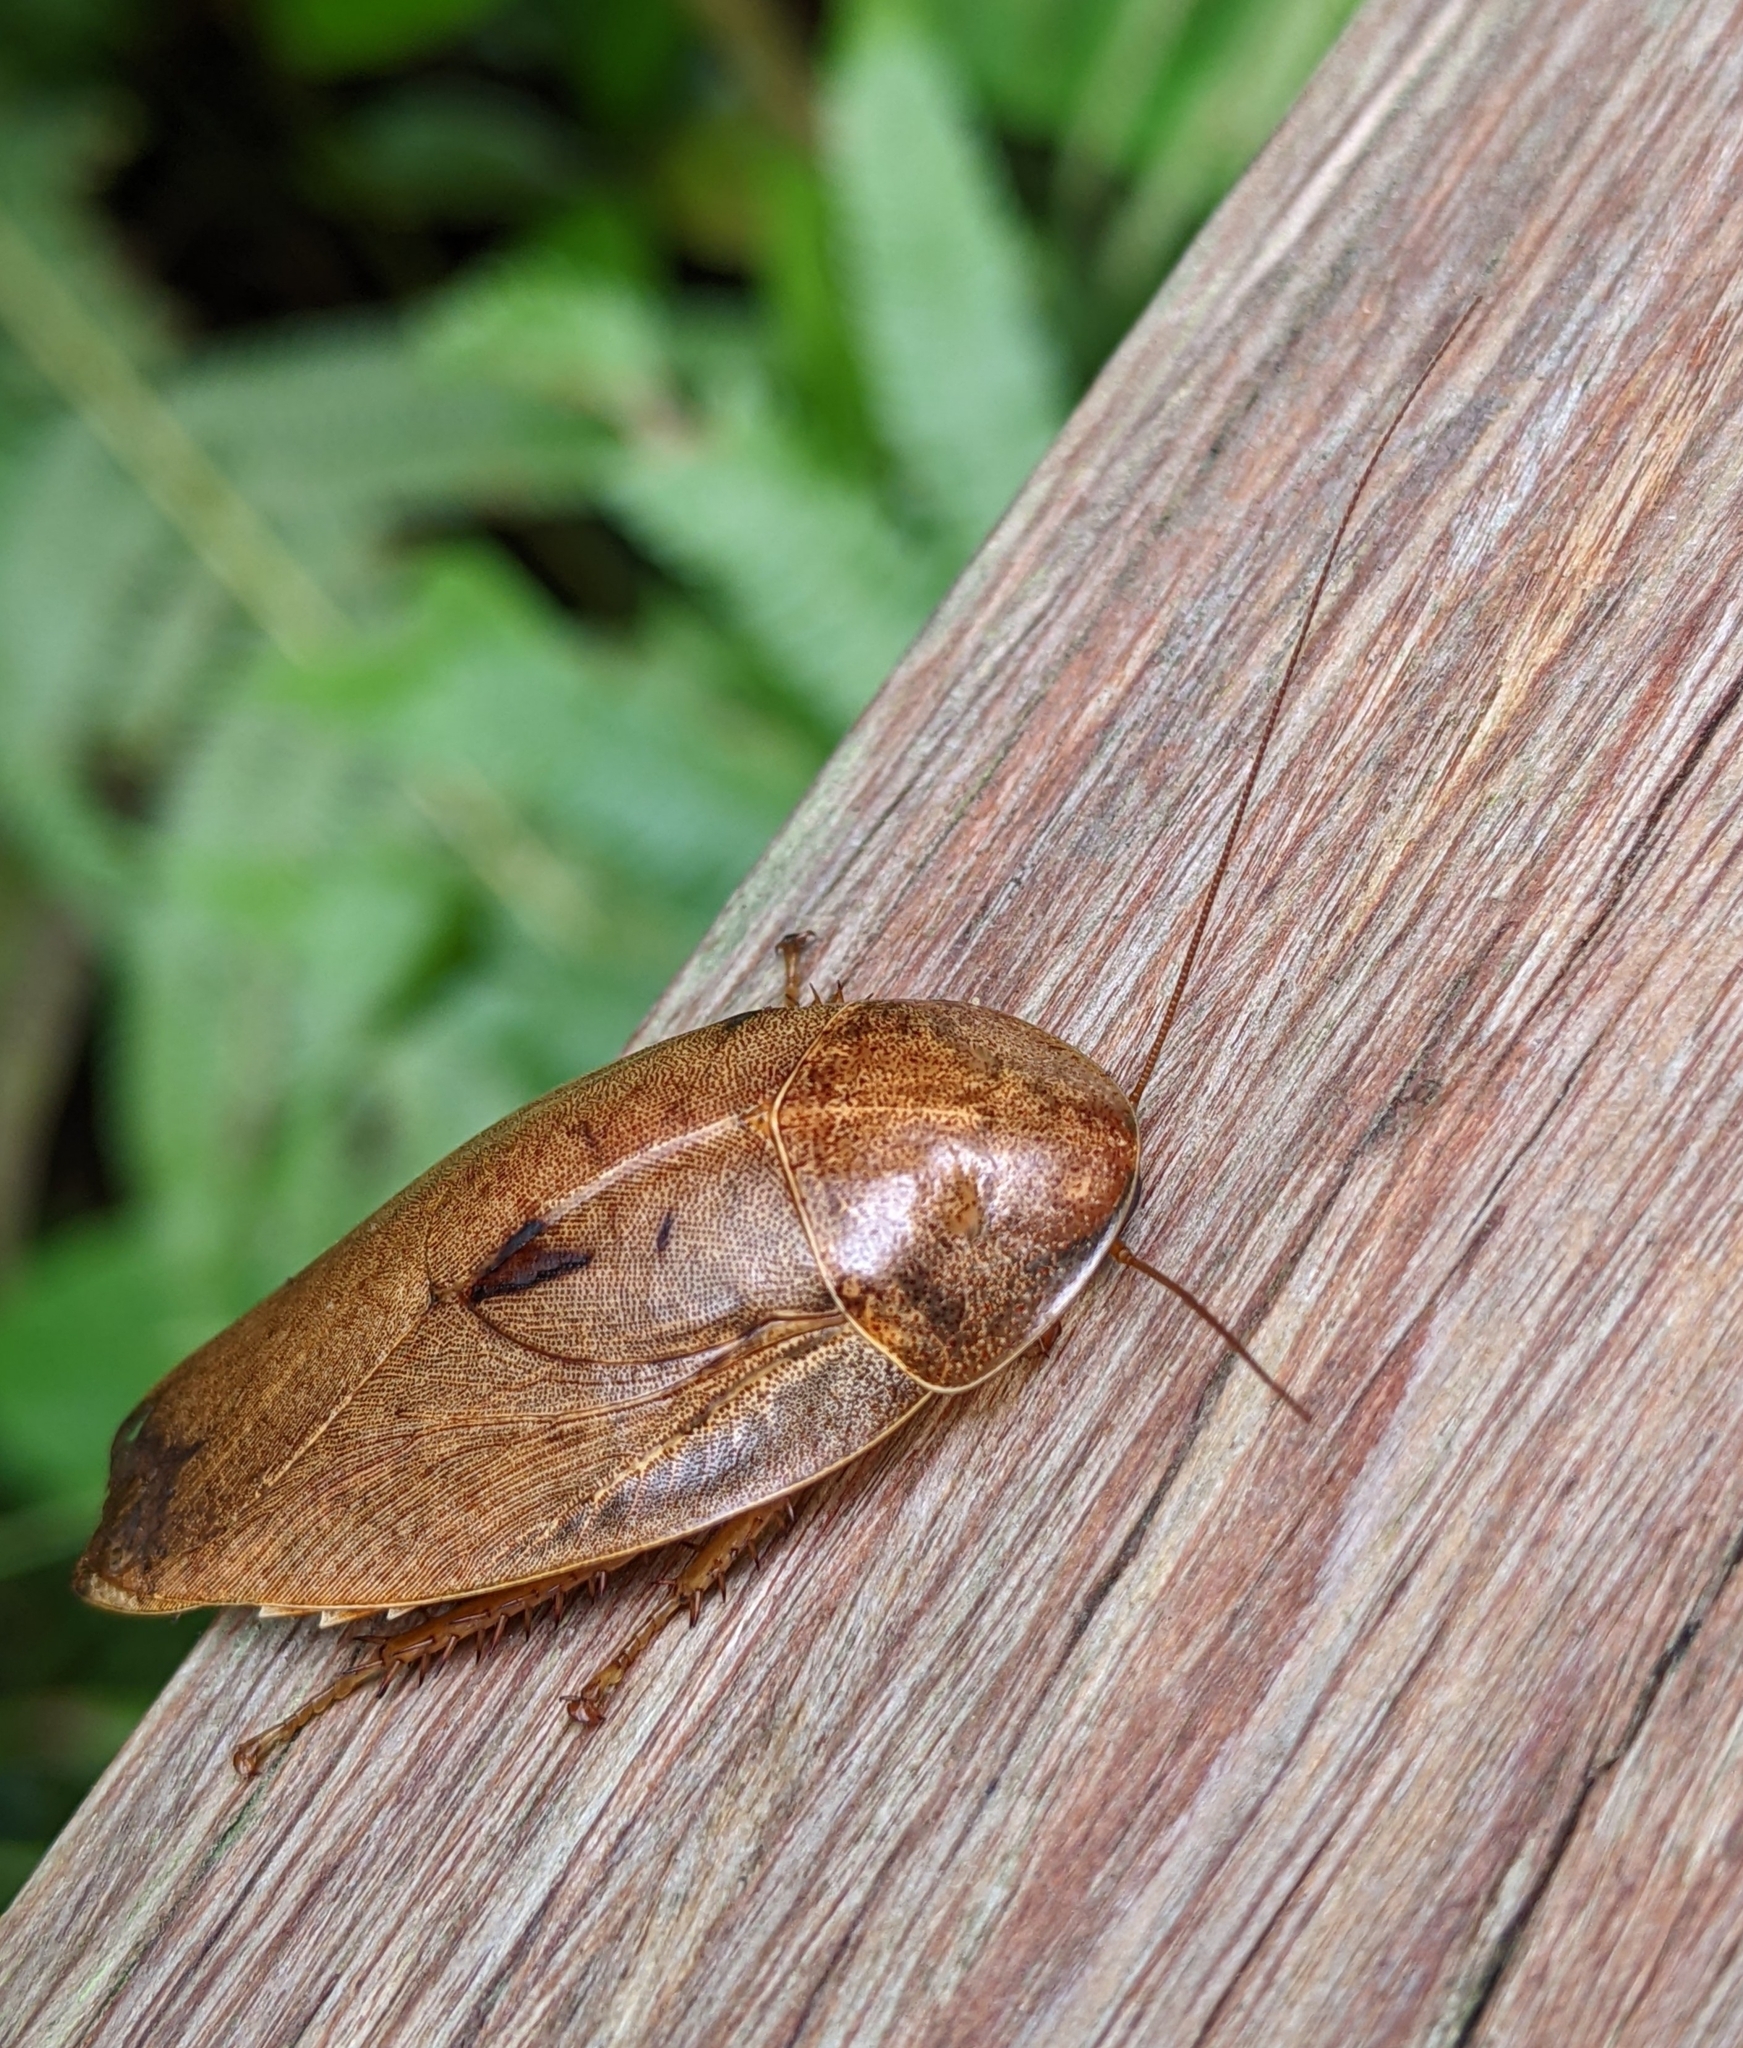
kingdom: Animalia
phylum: Arthropoda
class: Insecta
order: Blattodea
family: Blaberidae
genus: Pseudophoraspis
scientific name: Pseudophoraspis nebulosa
